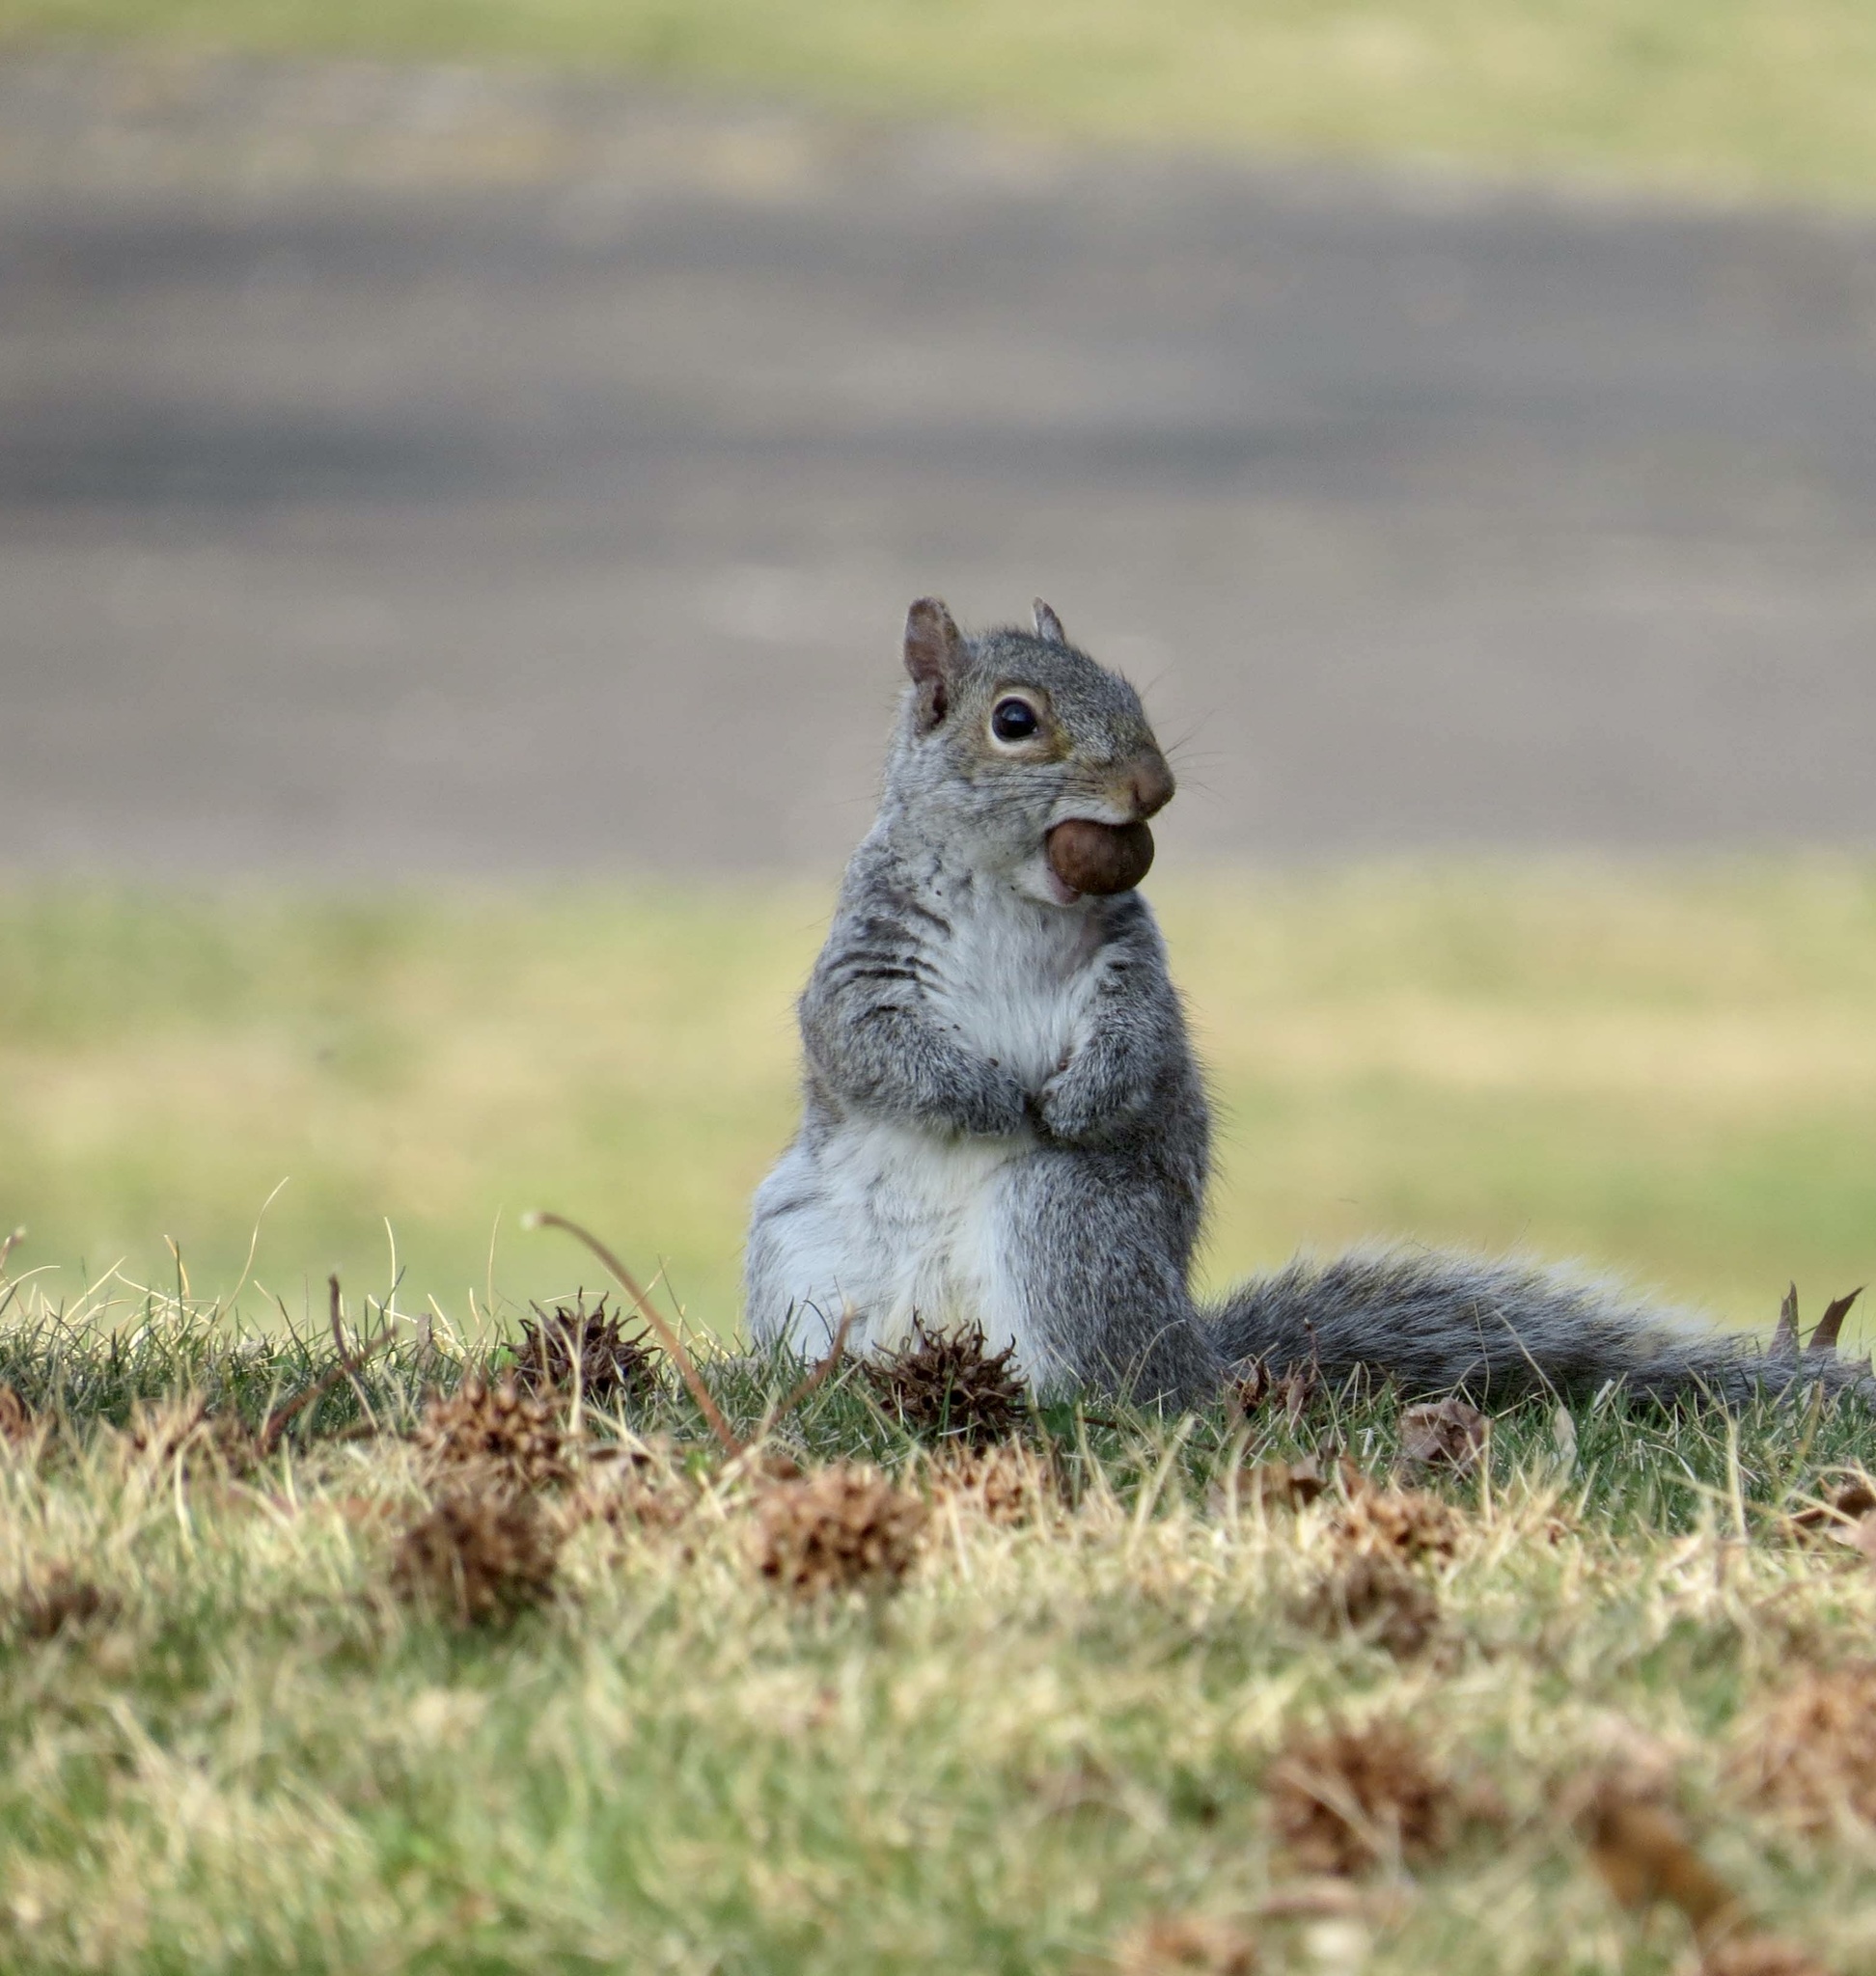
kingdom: Animalia
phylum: Chordata
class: Mammalia
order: Rodentia
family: Sciuridae
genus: Sciurus
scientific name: Sciurus carolinensis
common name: Eastern gray squirrel
